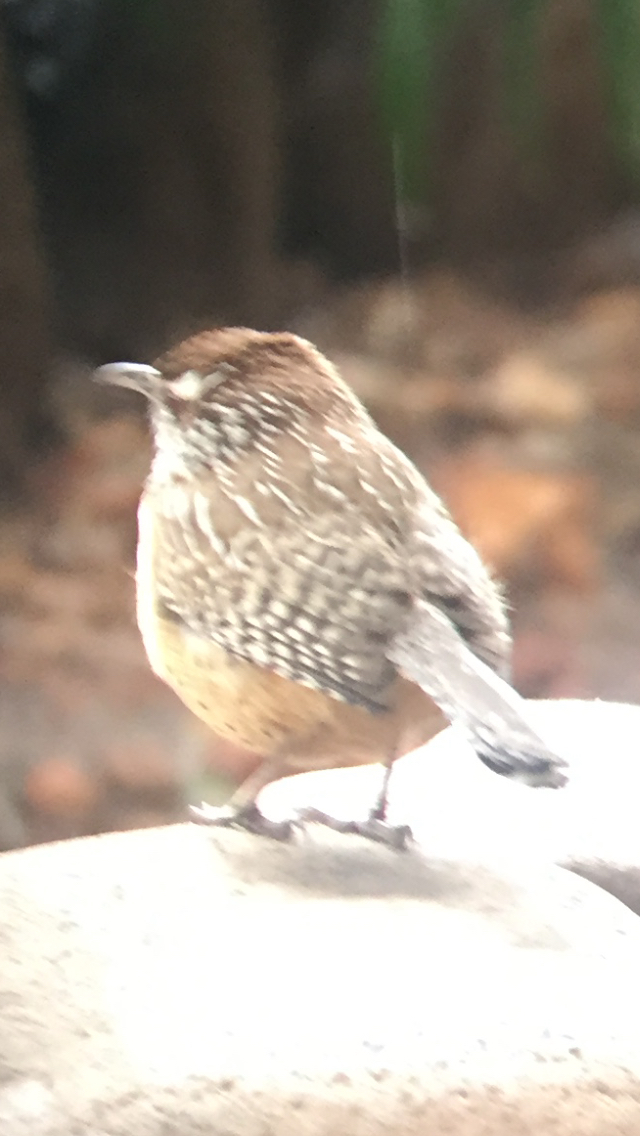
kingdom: Animalia
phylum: Chordata
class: Aves
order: Passeriformes
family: Troglodytidae
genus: Campylorhynchus
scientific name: Campylorhynchus brunneicapillus
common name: Cactus wren
